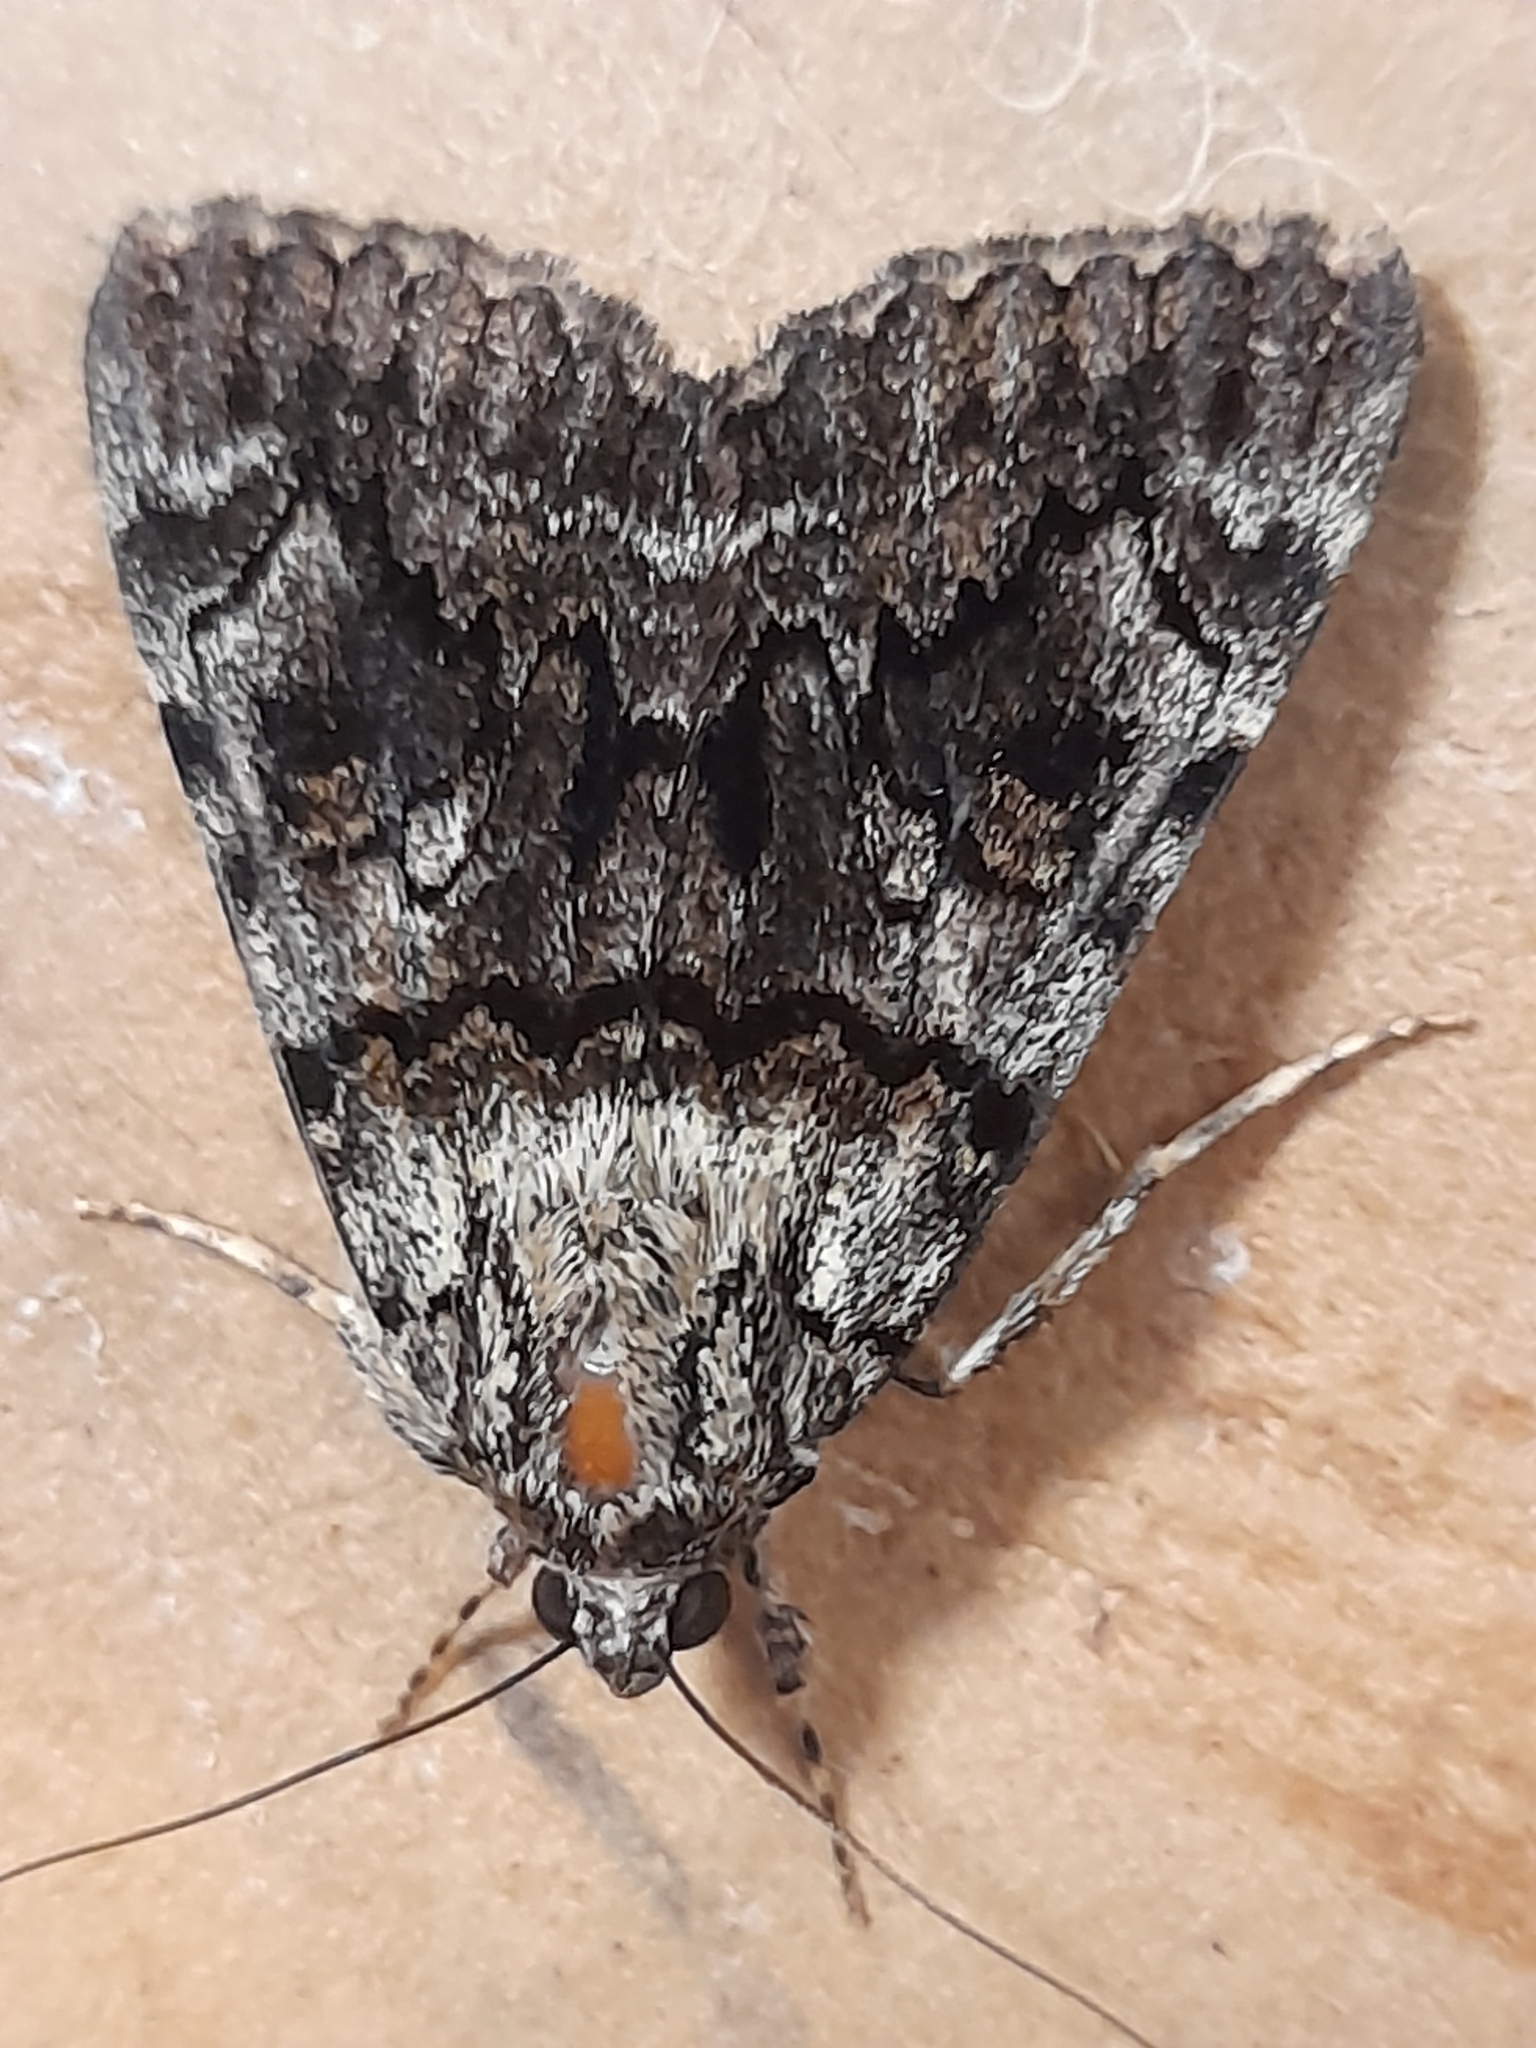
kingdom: Animalia
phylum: Arthropoda
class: Insecta
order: Lepidoptera
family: Erebidae
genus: Catocala
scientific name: Catocala nymphagoga
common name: Oak yellow underwing
